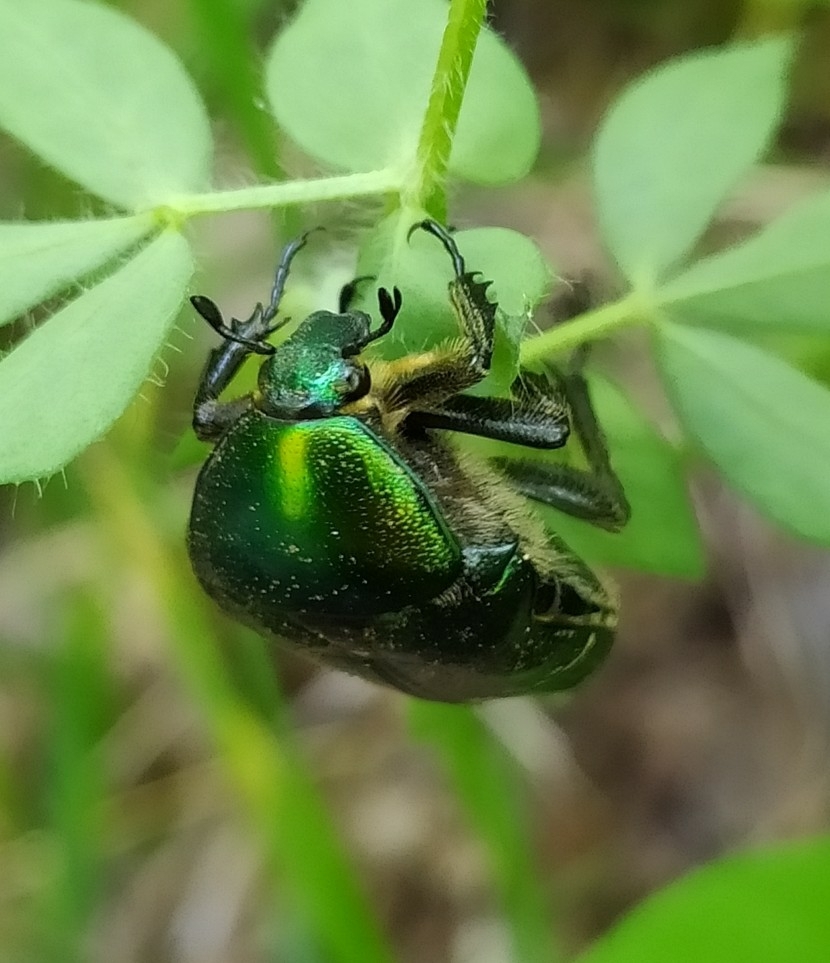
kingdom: Animalia
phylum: Arthropoda
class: Insecta
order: Coleoptera
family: Scarabaeidae
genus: Cetonia
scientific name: Cetonia aurata
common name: Rose chafer
